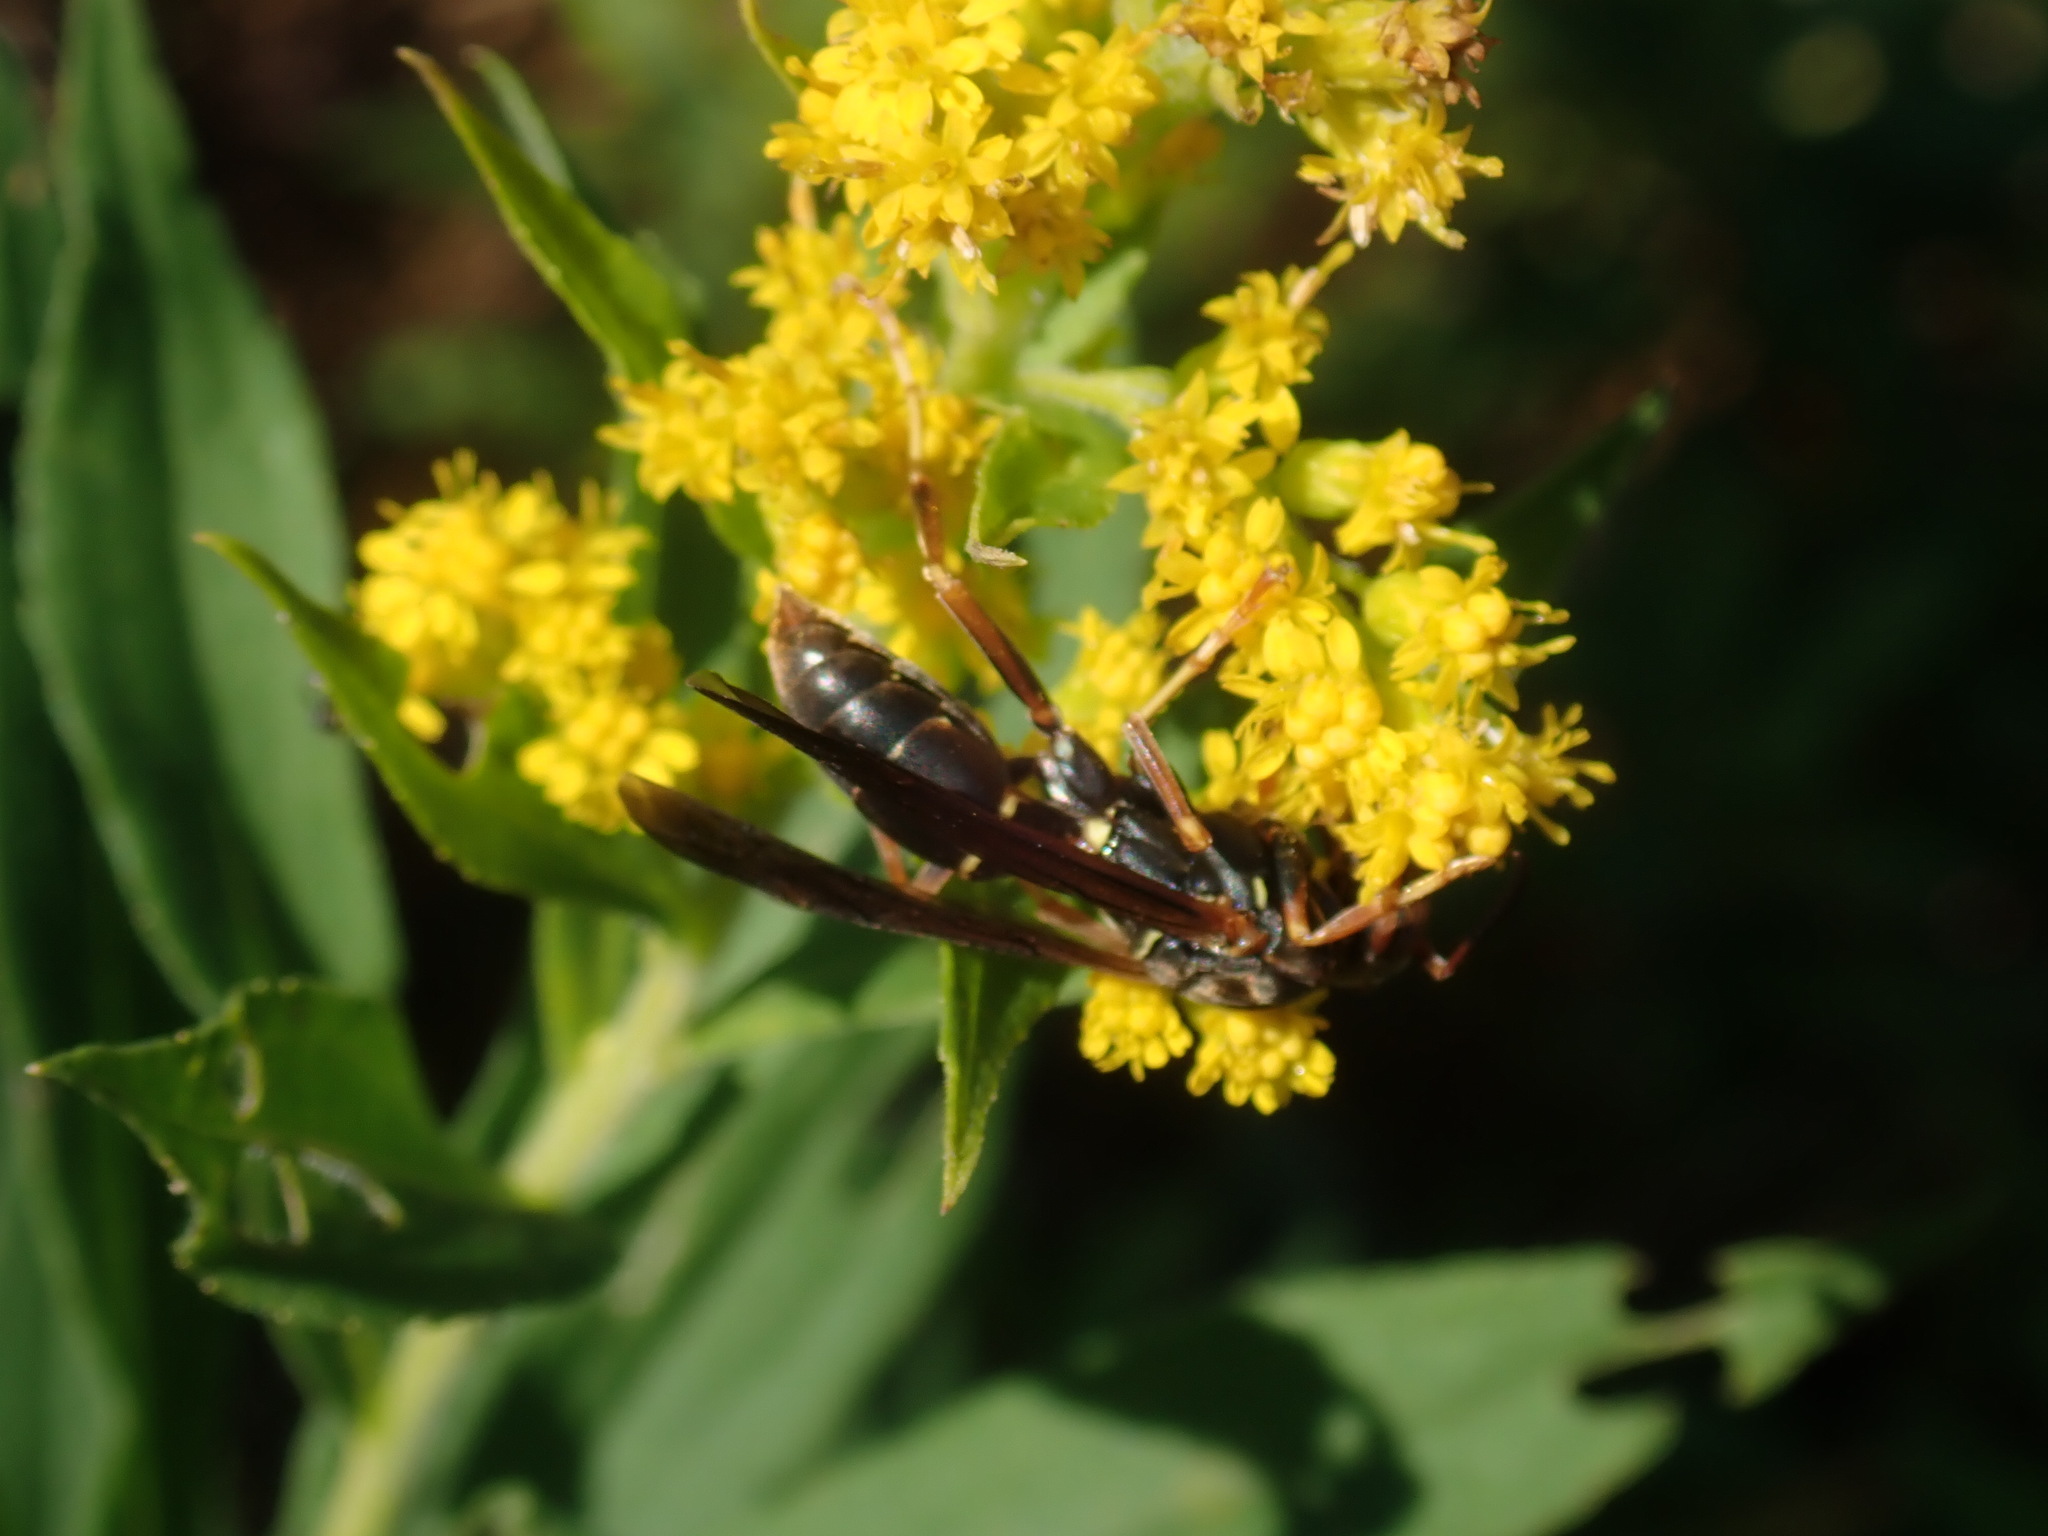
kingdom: Animalia
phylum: Arthropoda
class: Insecta
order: Hymenoptera
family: Eumenidae
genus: Polistes
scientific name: Polistes fuscatus
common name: Dark paper wasp
